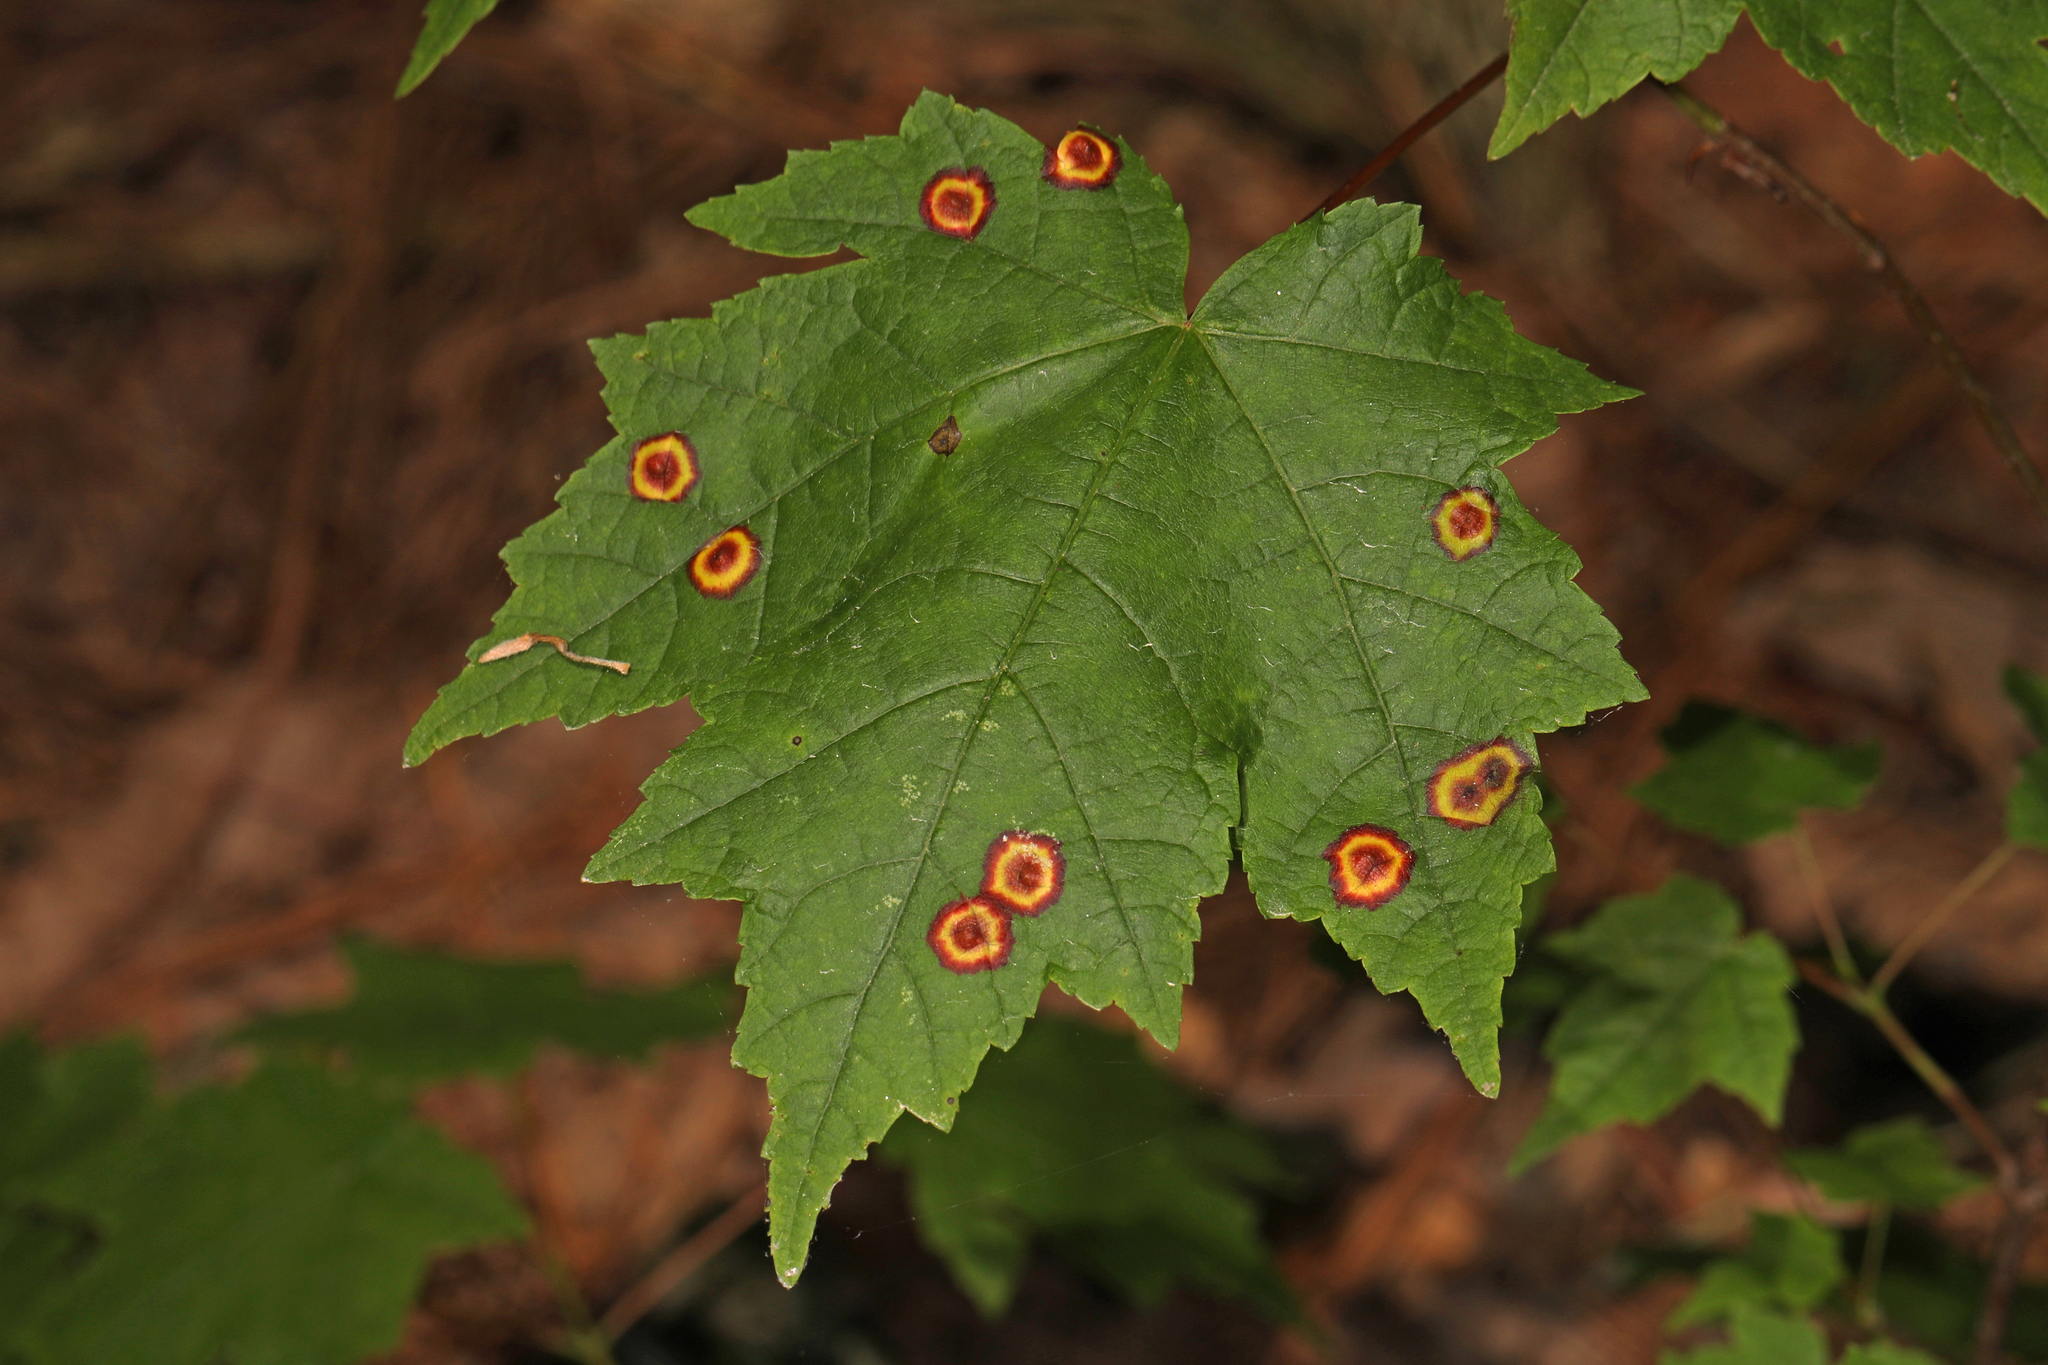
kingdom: Animalia
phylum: Arthropoda
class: Insecta
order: Diptera
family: Cecidomyiidae
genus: Acericecis
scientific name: Acericecis ocellaris
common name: Ocellate gall midge
